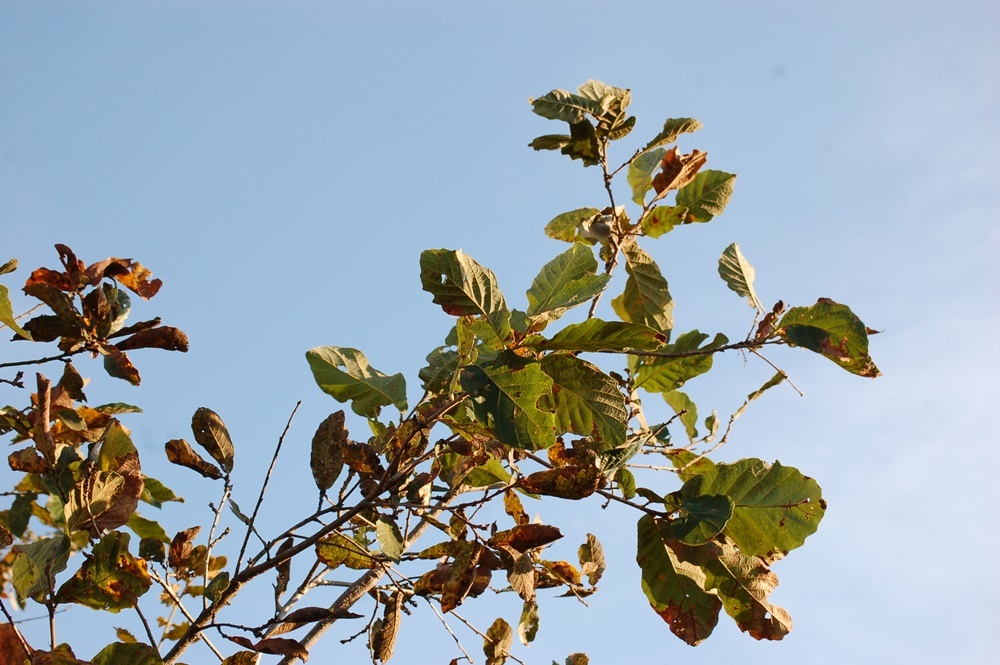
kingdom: Plantae
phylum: Tracheophyta
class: Magnoliopsida
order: Fagales
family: Fagaceae
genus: Quercus
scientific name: Quercus segoviensis
